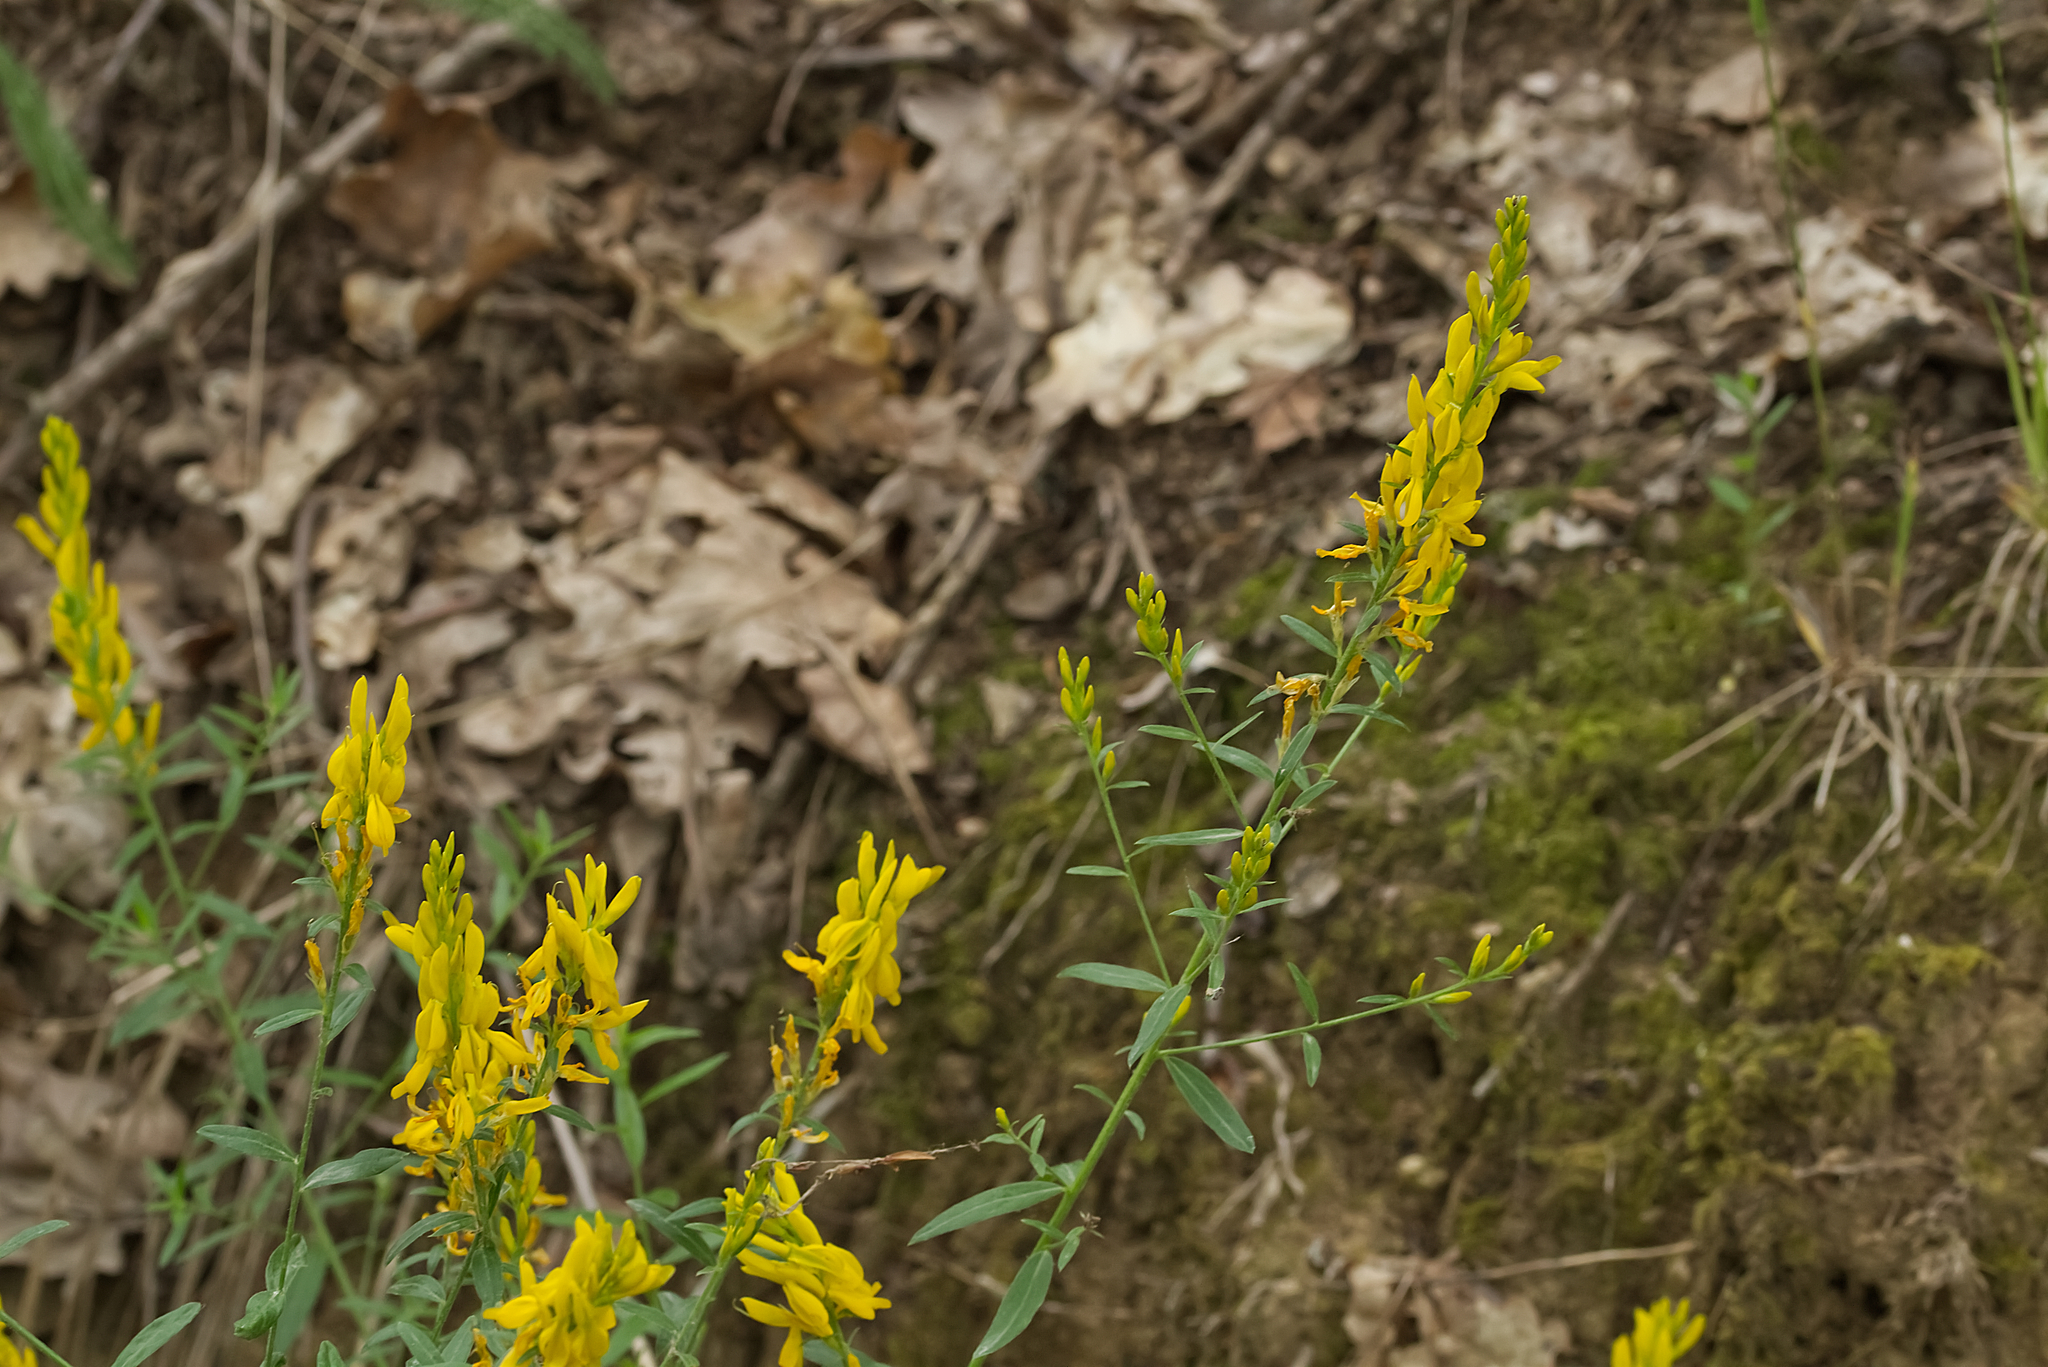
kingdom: Plantae
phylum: Tracheophyta
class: Magnoliopsida
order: Fabales
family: Fabaceae
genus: Genista
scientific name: Genista tinctoria
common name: Dyer's greenweed
